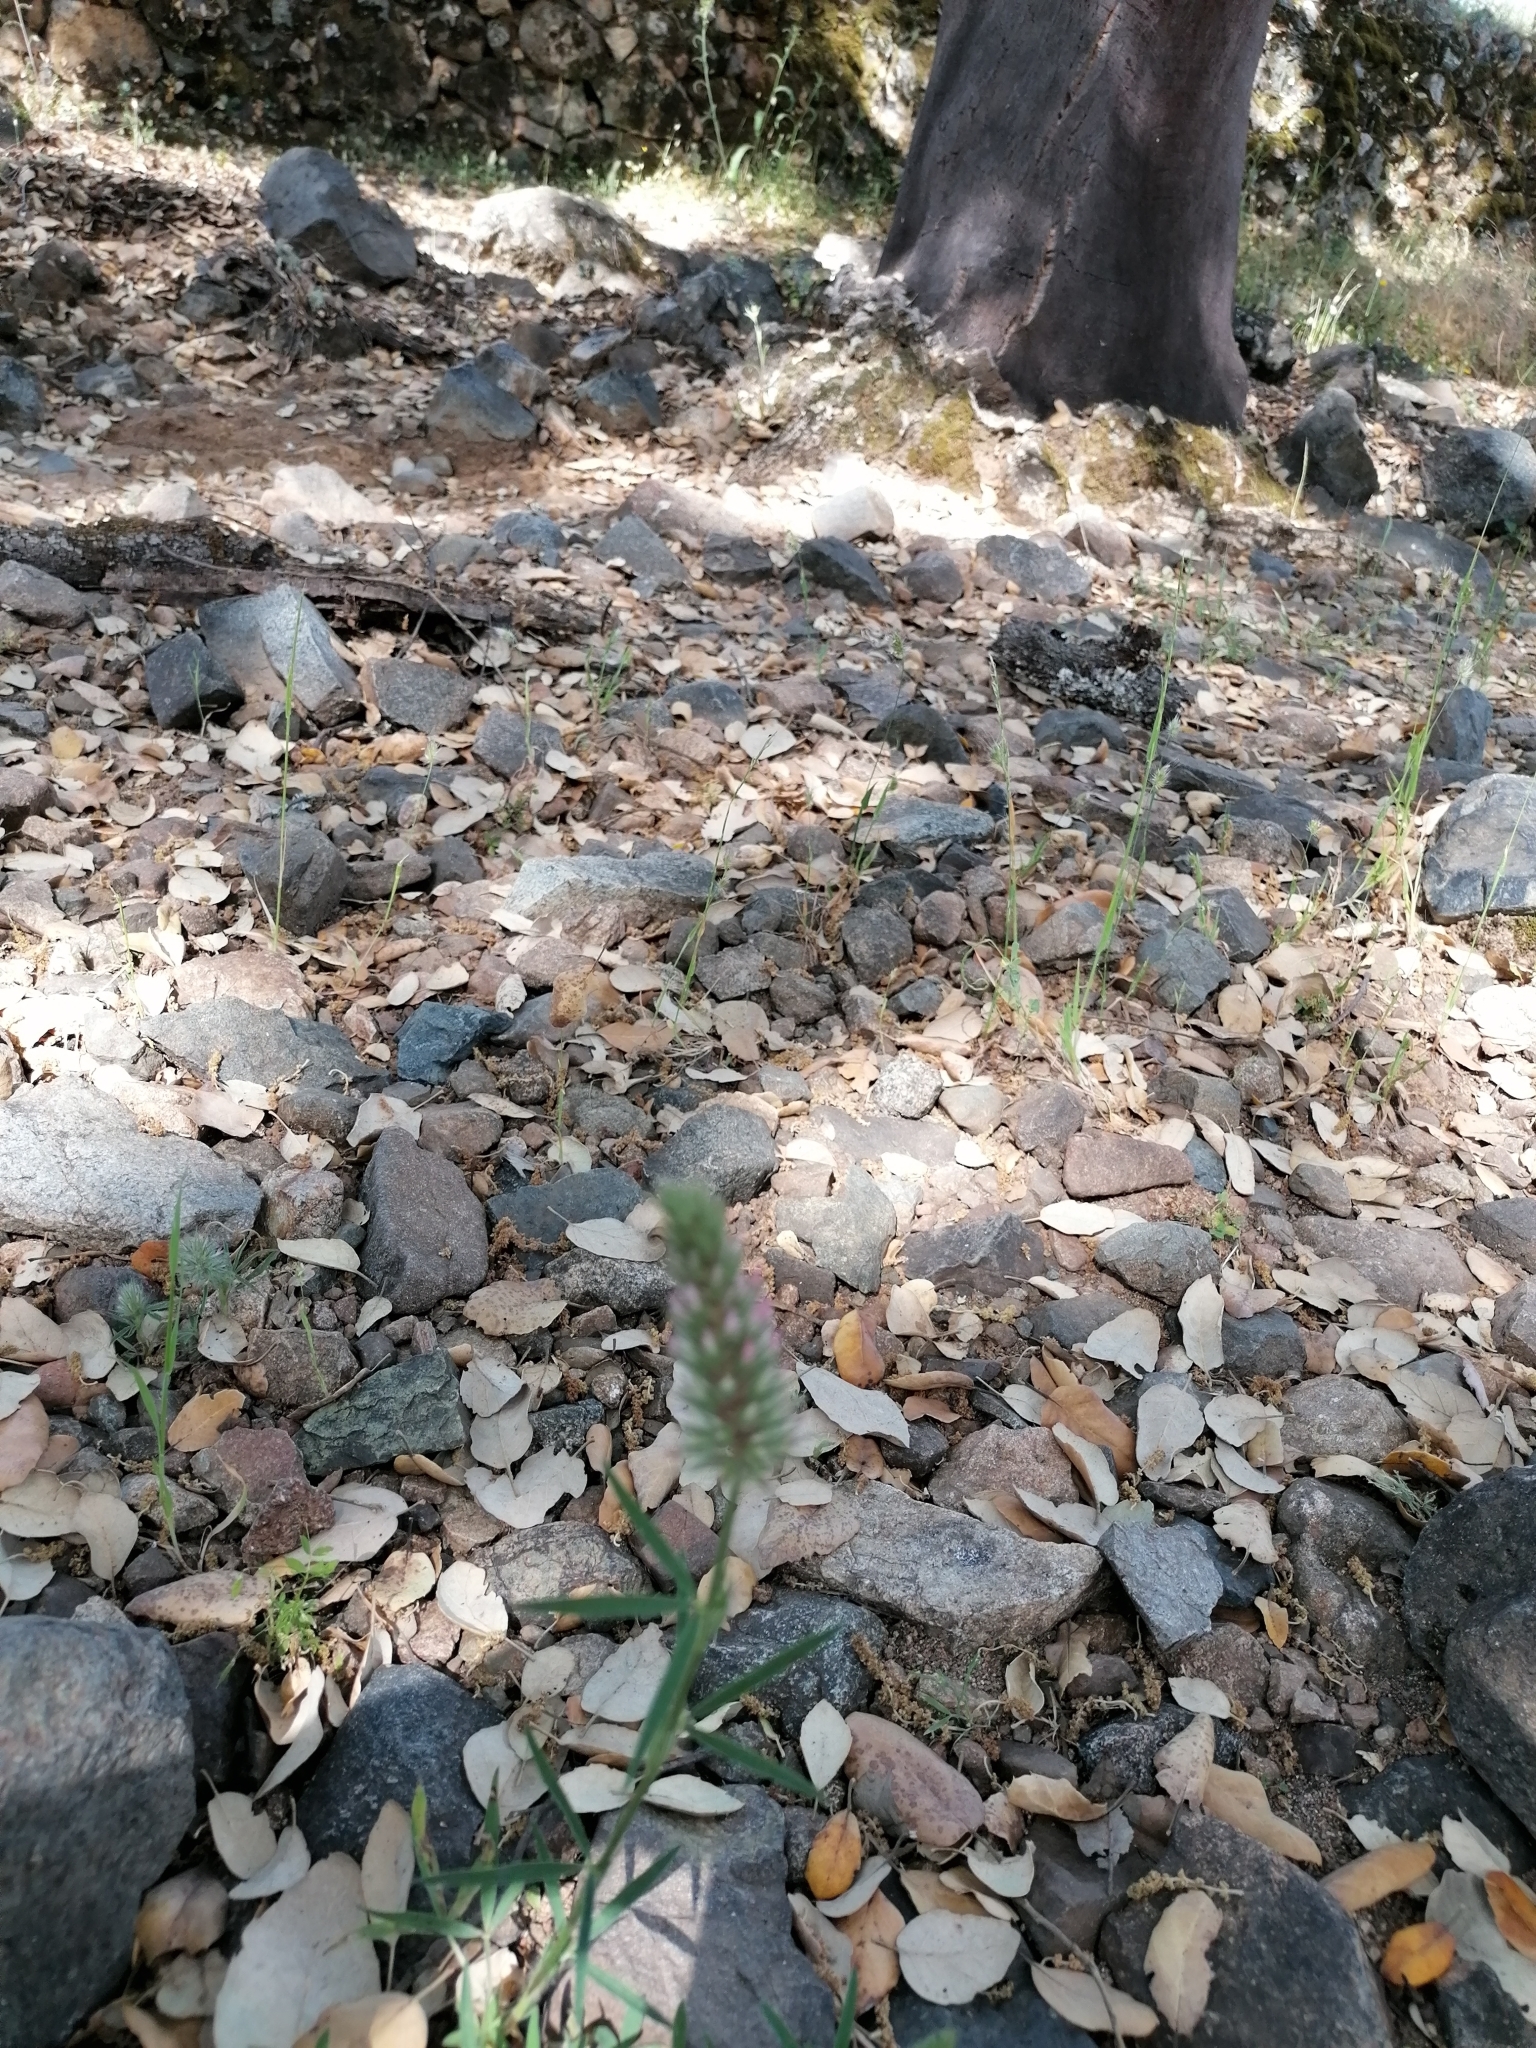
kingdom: Plantae
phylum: Tracheophyta
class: Magnoliopsida
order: Fabales
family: Fabaceae
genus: Trifolium
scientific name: Trifolium angustifolium
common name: Narrow clover
